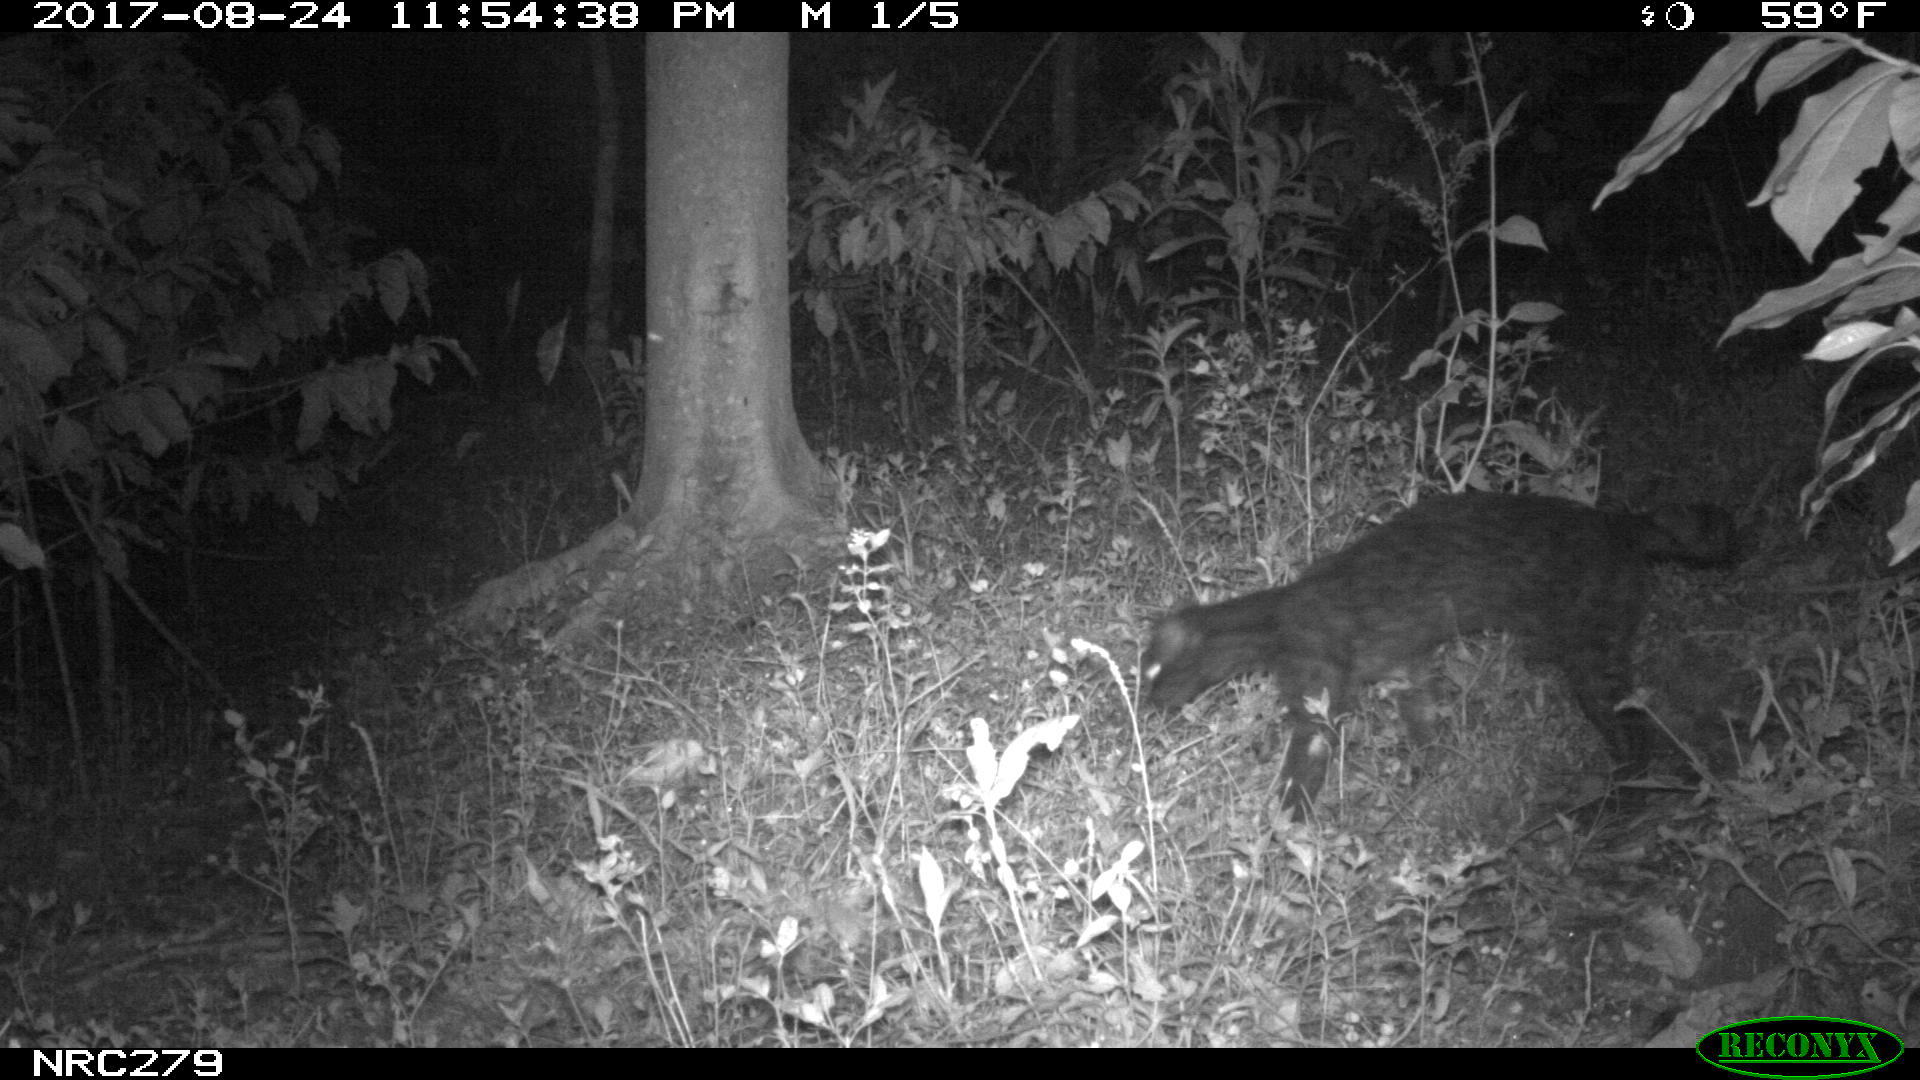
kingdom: Animalia
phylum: Chordata
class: Mammalia
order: Carnivora
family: Felidae
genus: Leopardus
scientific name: Leopardus tigrinus
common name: Oncilla
